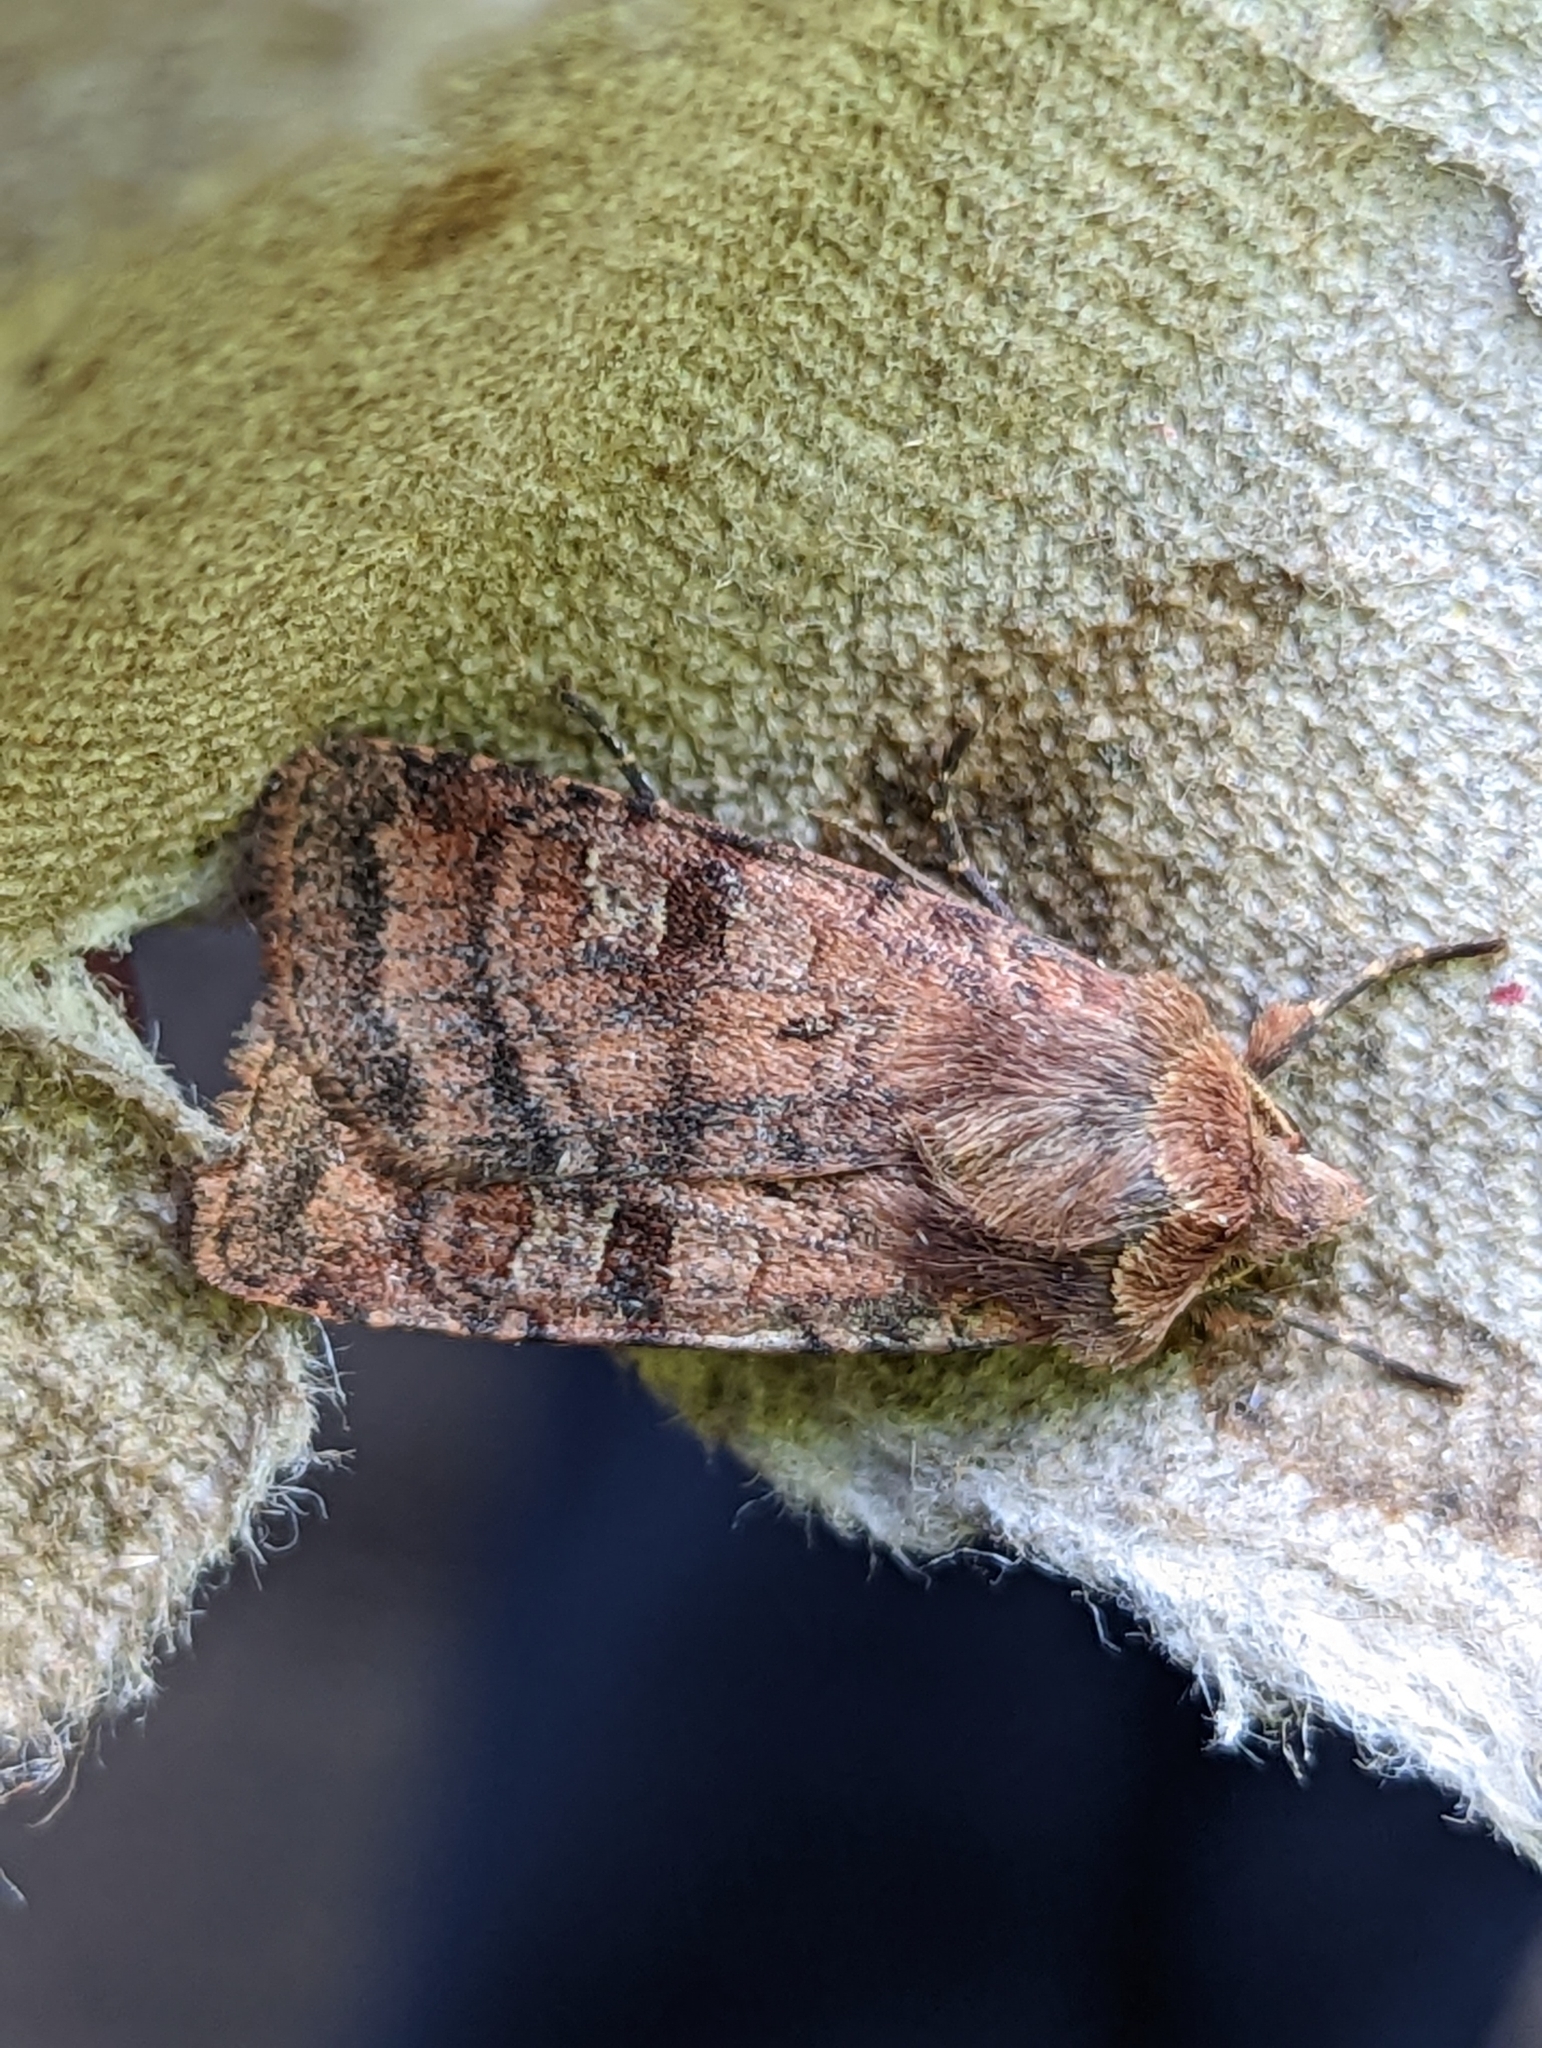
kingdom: Animalia
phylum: Arthropoda
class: Insecta
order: Lepidoptera
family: Noctuidae
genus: Diarsia
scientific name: Diarsia rubi
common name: Small square-spot
